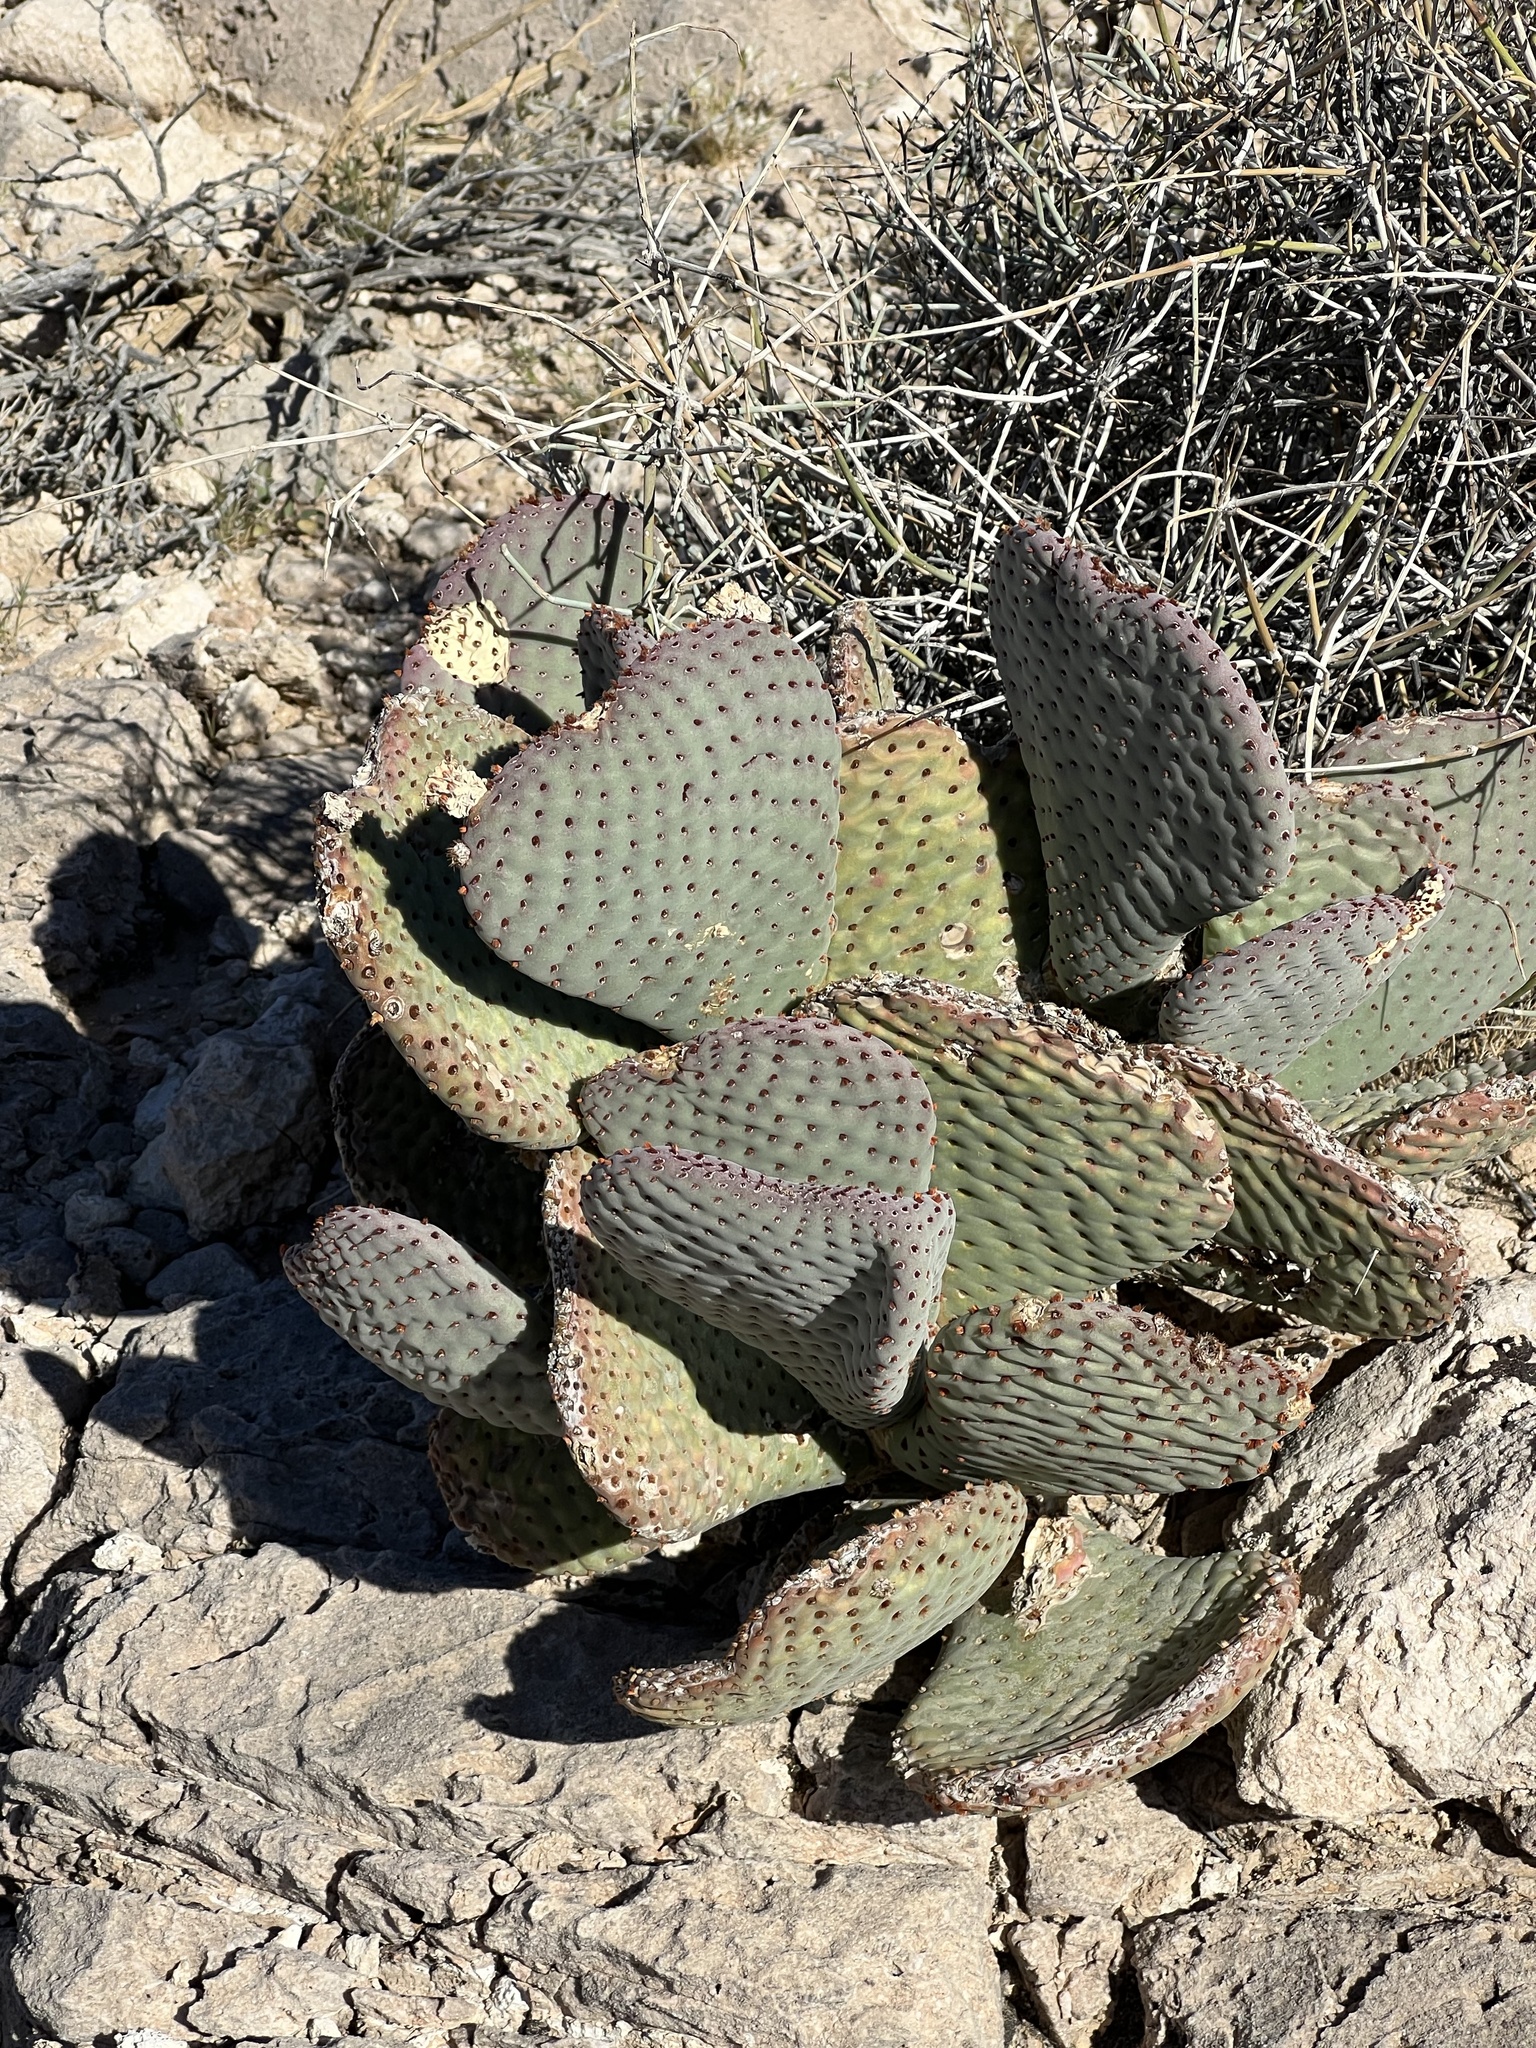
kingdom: Plantae
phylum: Tracheophyta
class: Magnoliopsida
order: Caryophyllales
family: Cactaceae
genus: Opuntia
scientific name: Opuntia basilaris
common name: Beavertail prickly-pear
